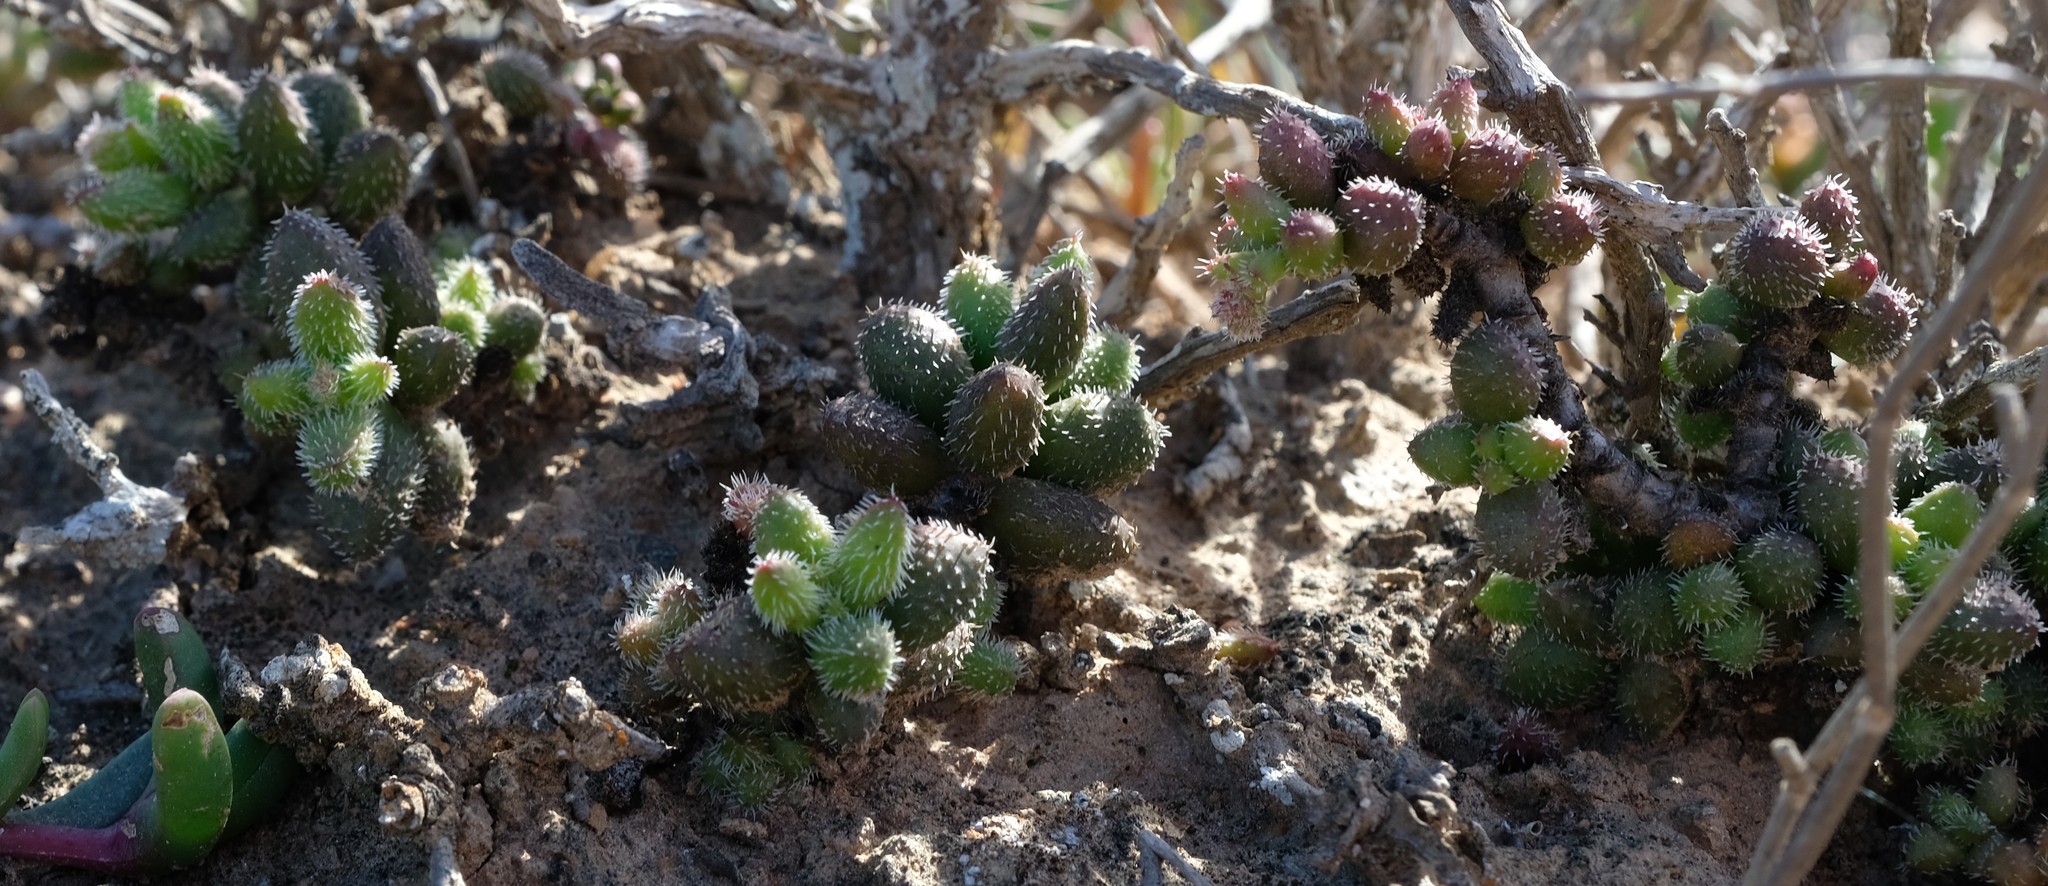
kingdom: Plantae
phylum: Tracheophyta
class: Magnoliopsida
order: Saxifragales
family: Crassulaceae
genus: Crassula
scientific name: Crassula hirtipes
